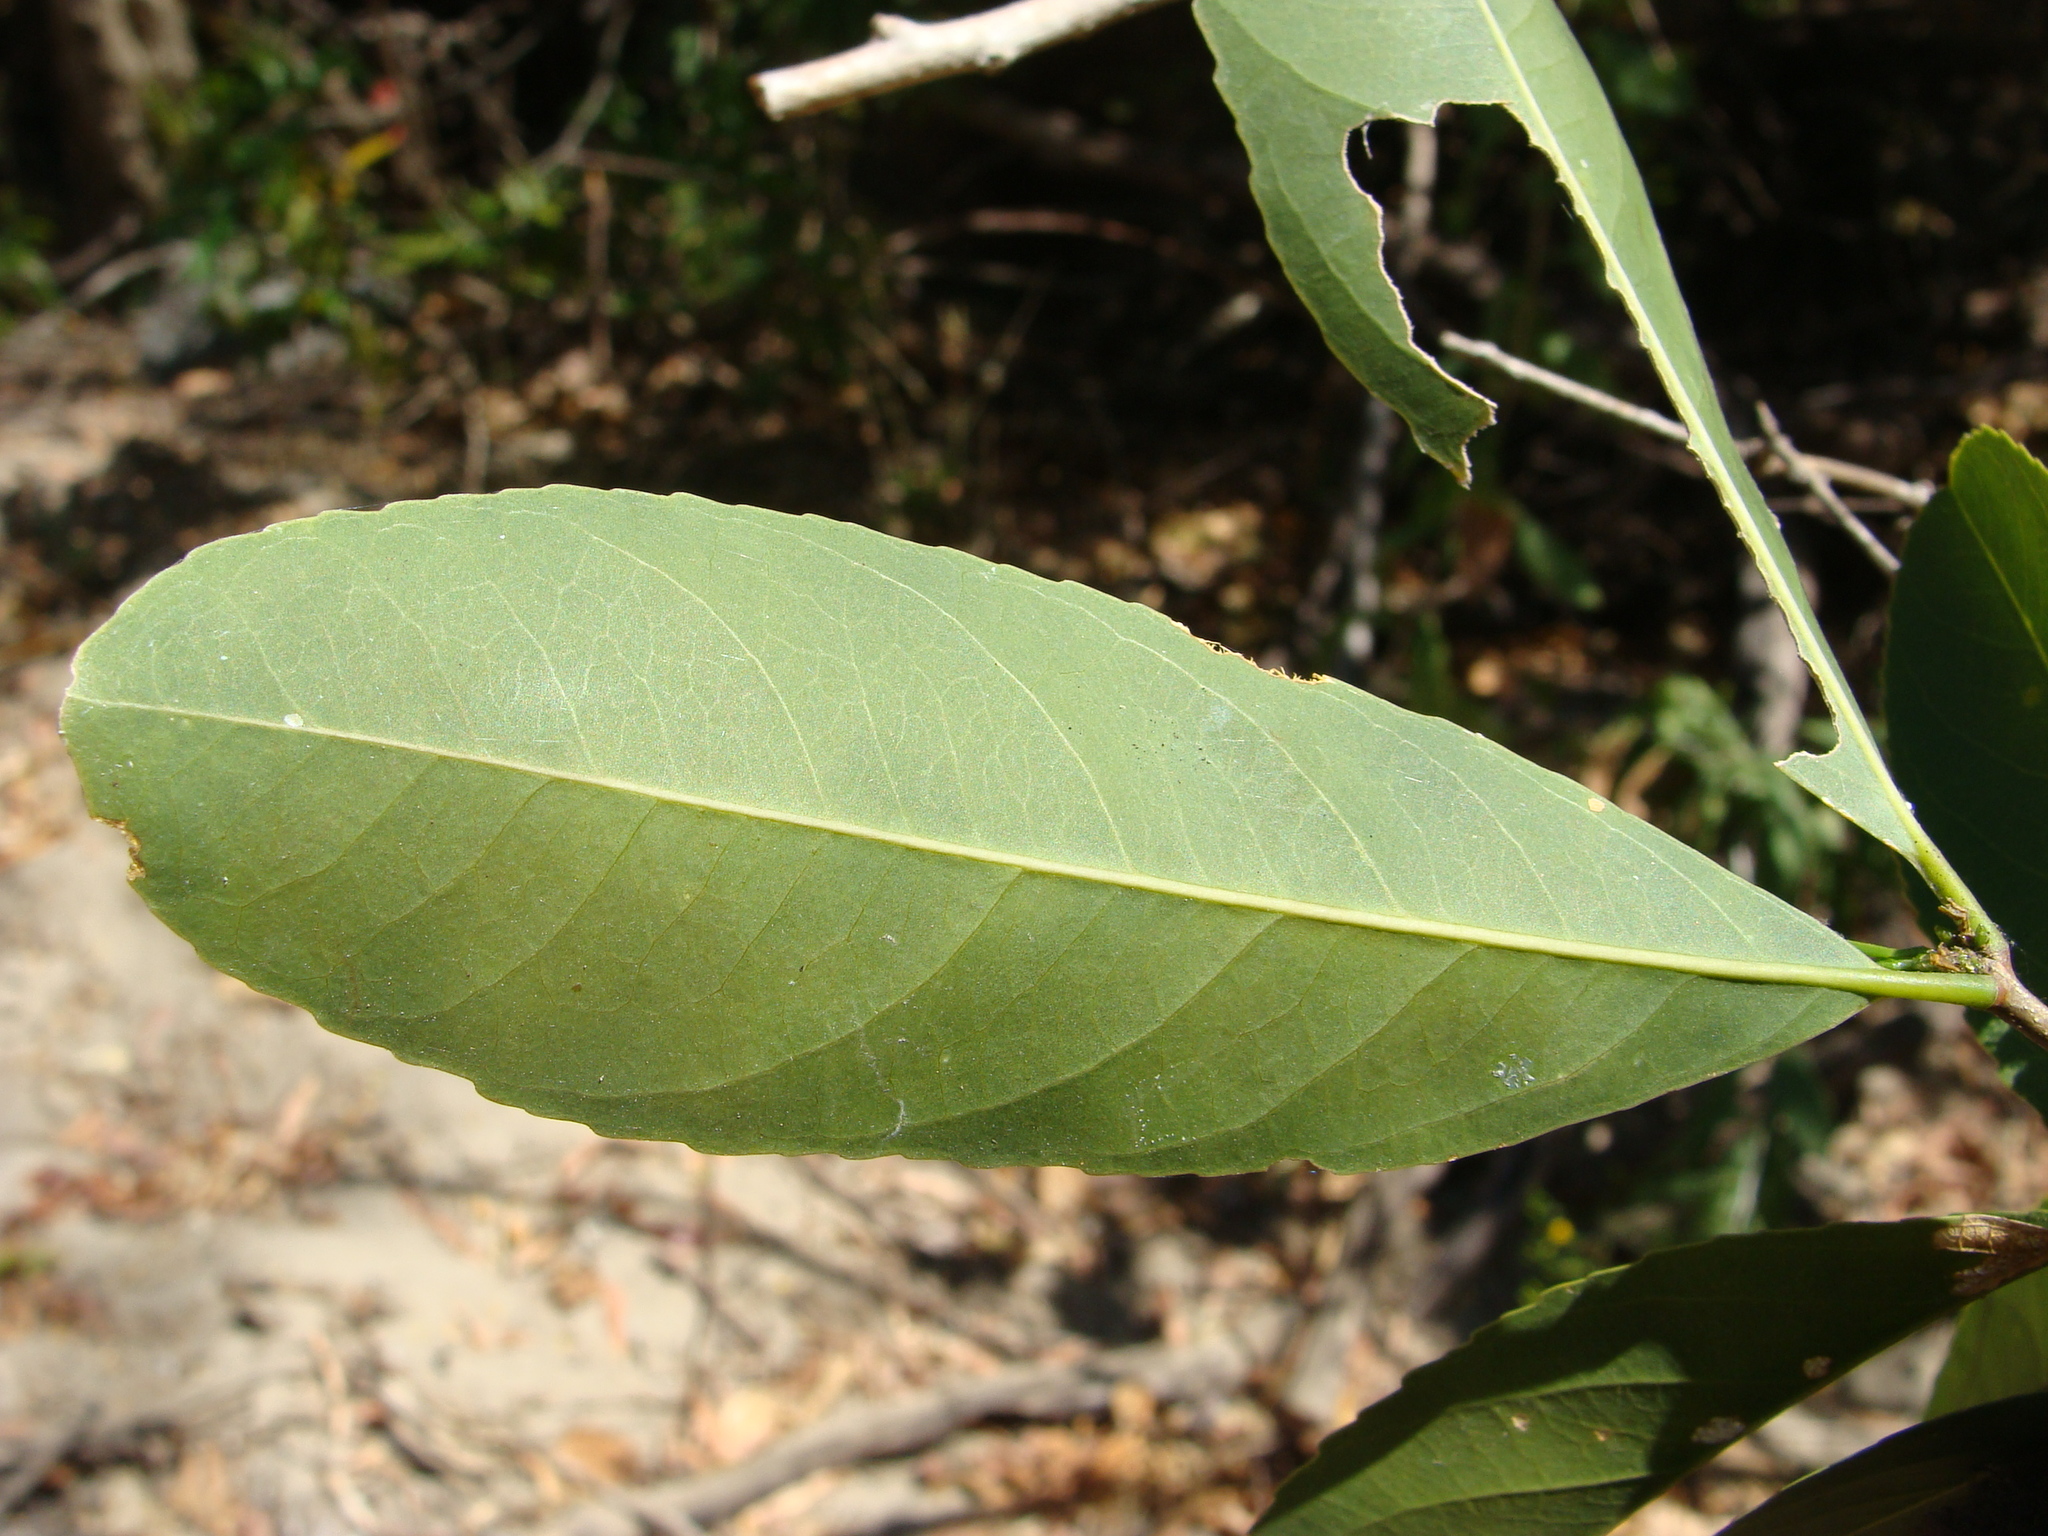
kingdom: Plantae
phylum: Tracheophyta
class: Magnoliopsida
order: Celastrales
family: Celastraceae
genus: Pristimera
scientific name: Pristimera celastroides
